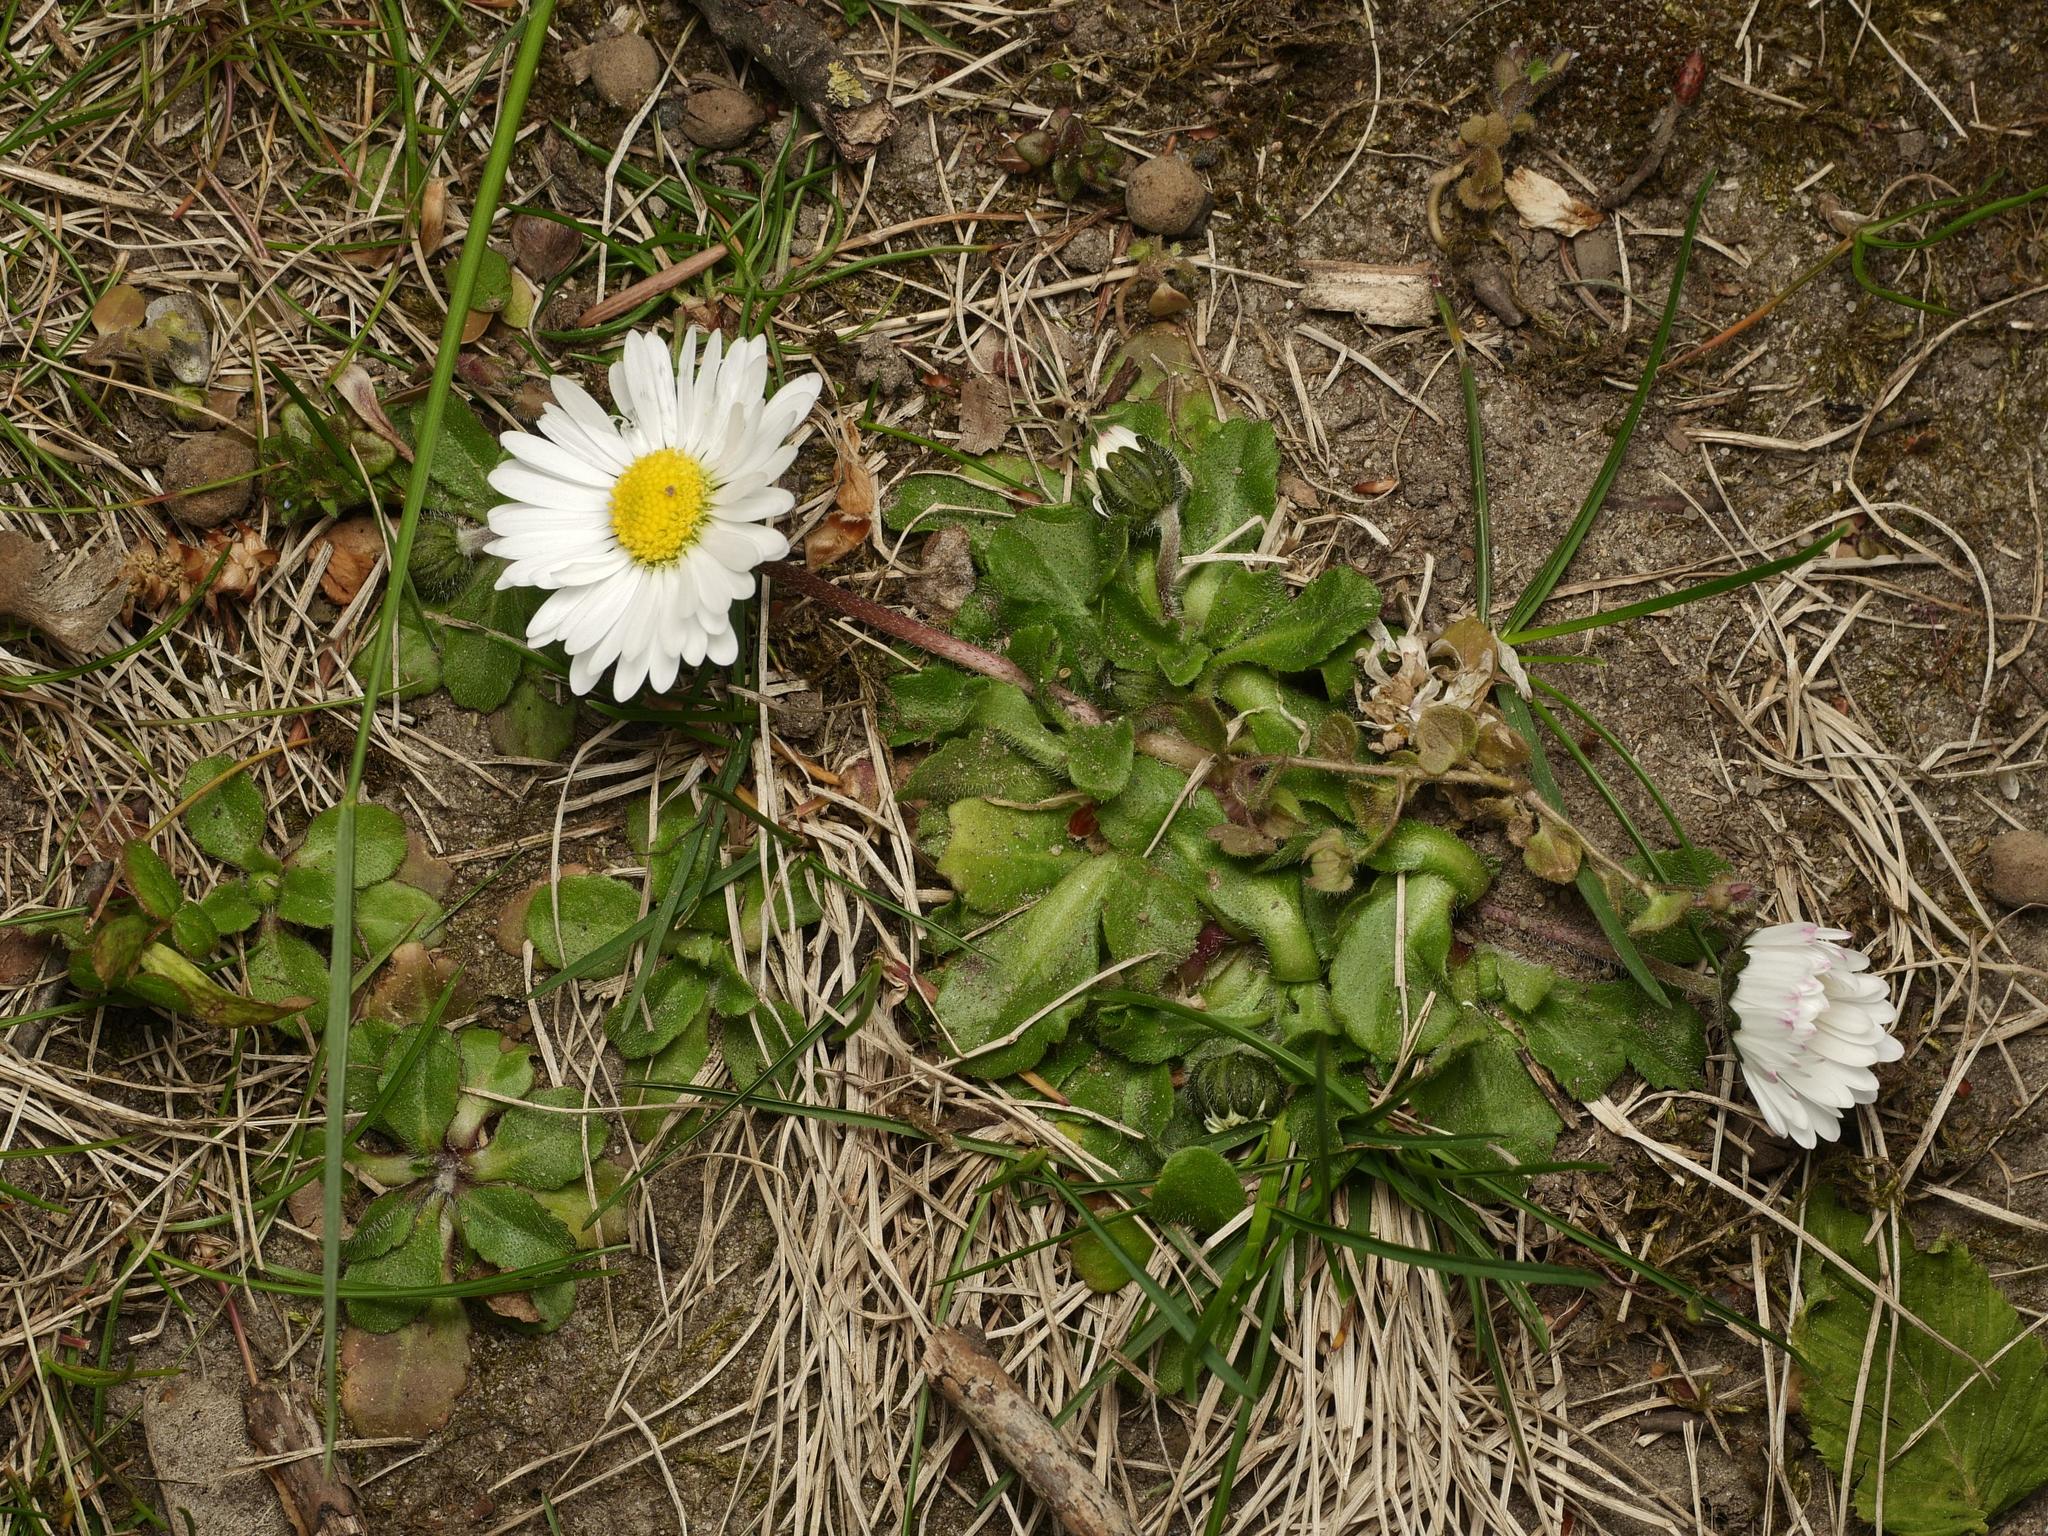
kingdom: Plantae
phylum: Tracheophyta
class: Magnoliopsida
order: Asterales
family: Asteraceae
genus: Bellis
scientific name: Bellis perennis
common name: Lawndaisy
